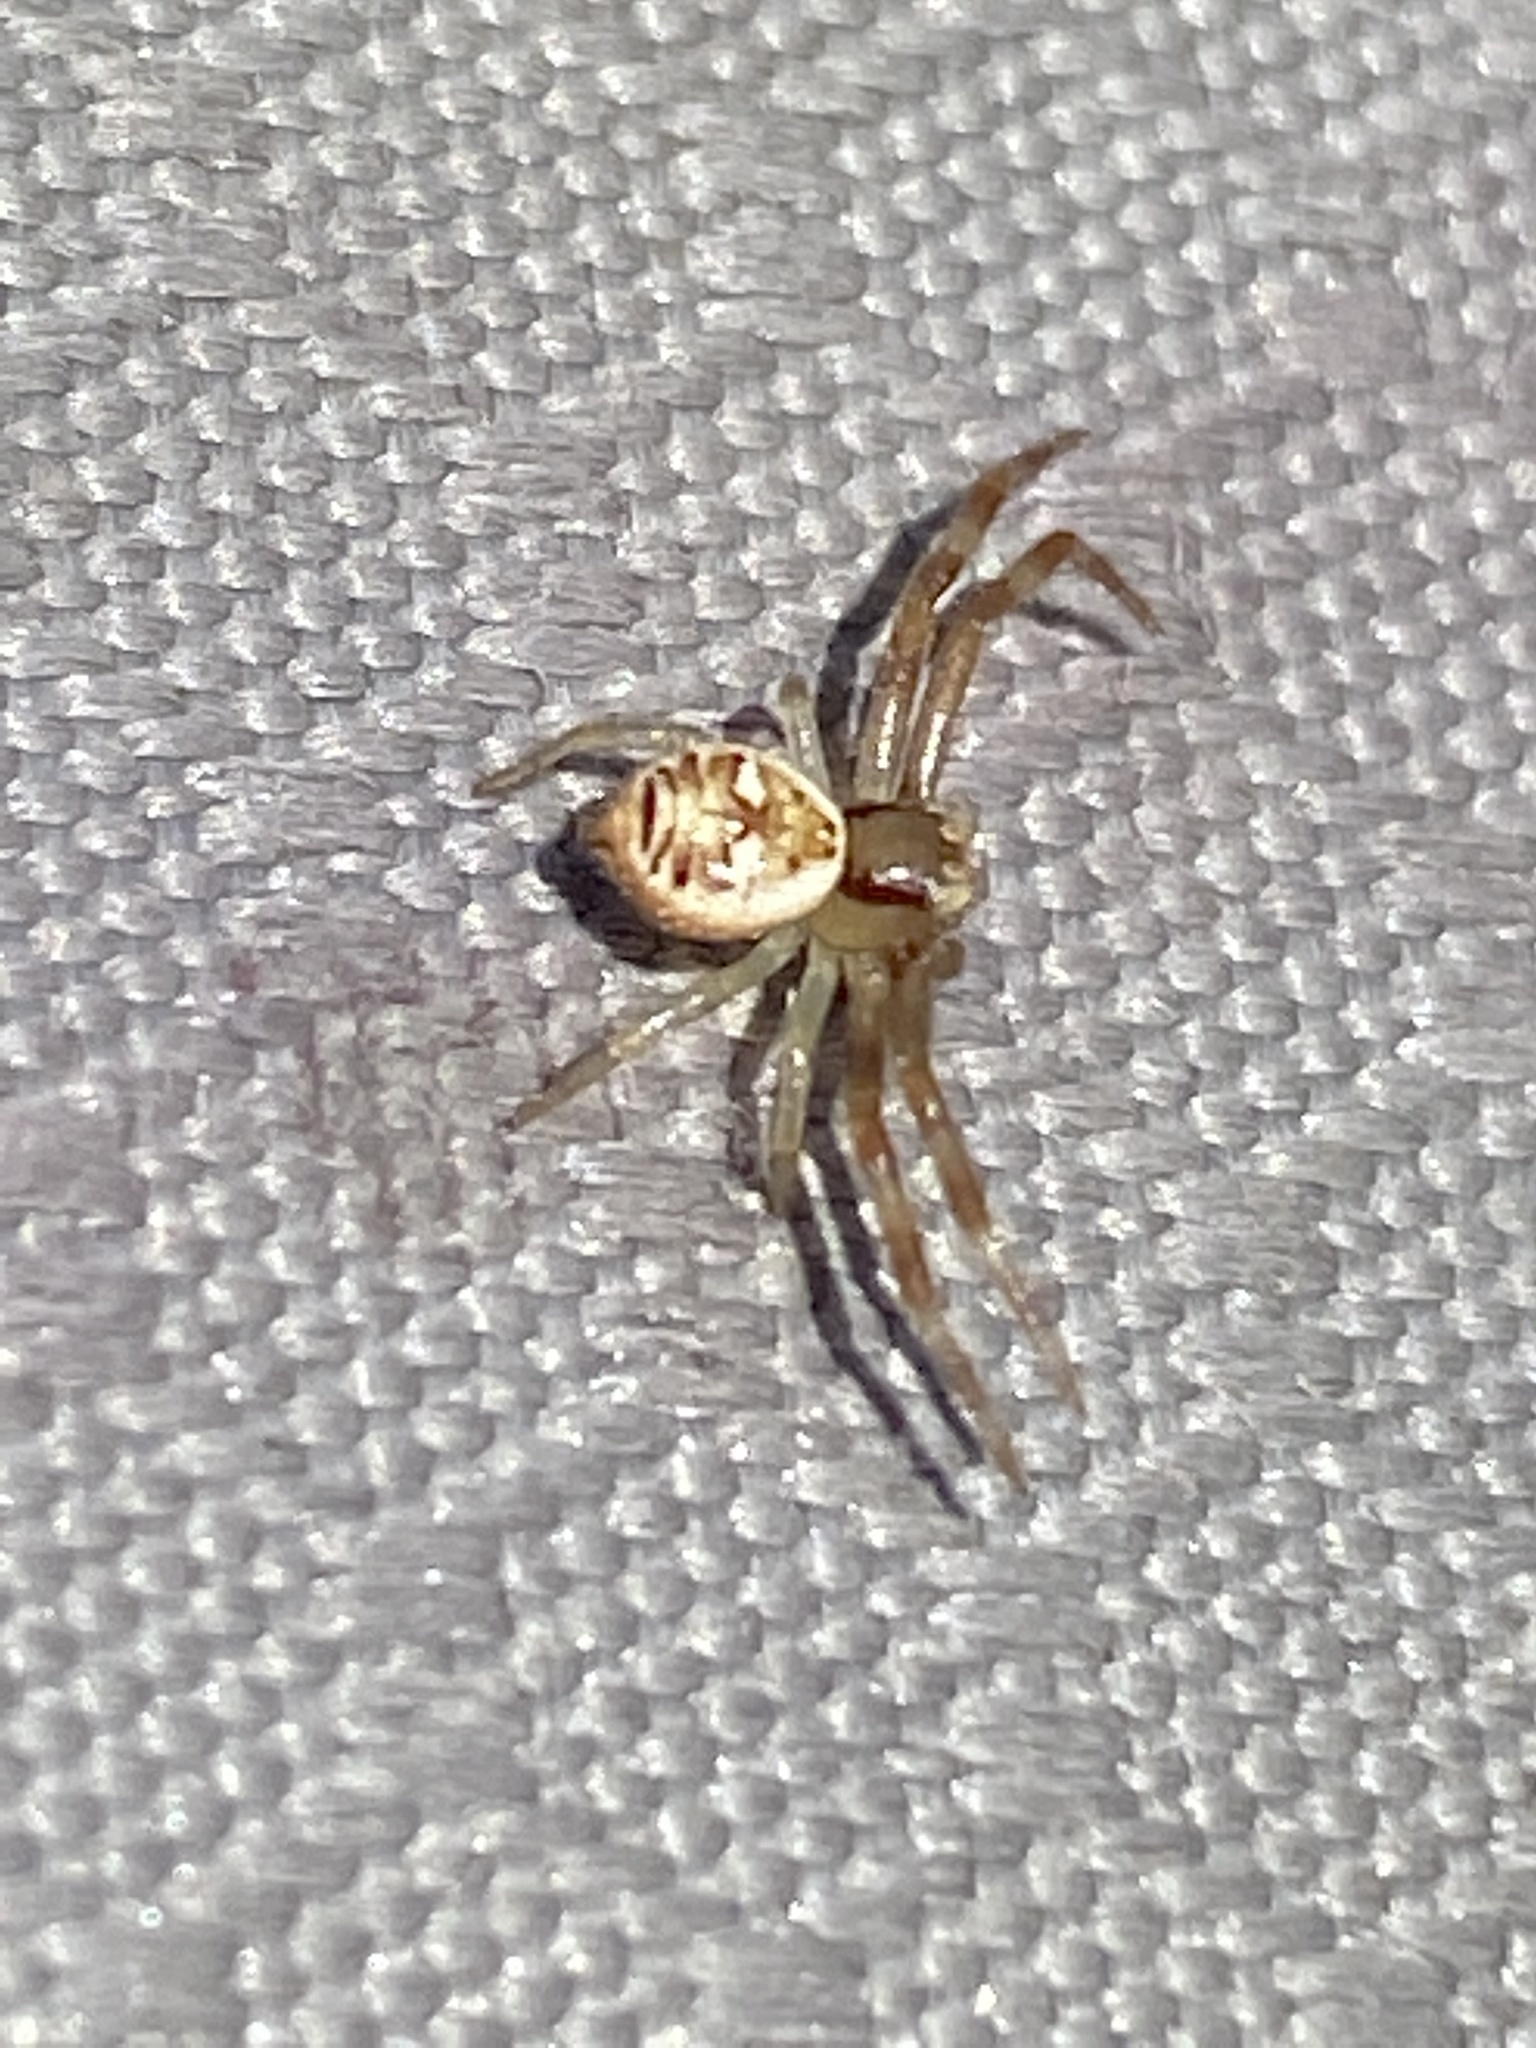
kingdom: Animalia
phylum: Arthropoda
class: Arachnida
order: Araneae
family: Thomisidae
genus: Synema
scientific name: Synema imitatrix
